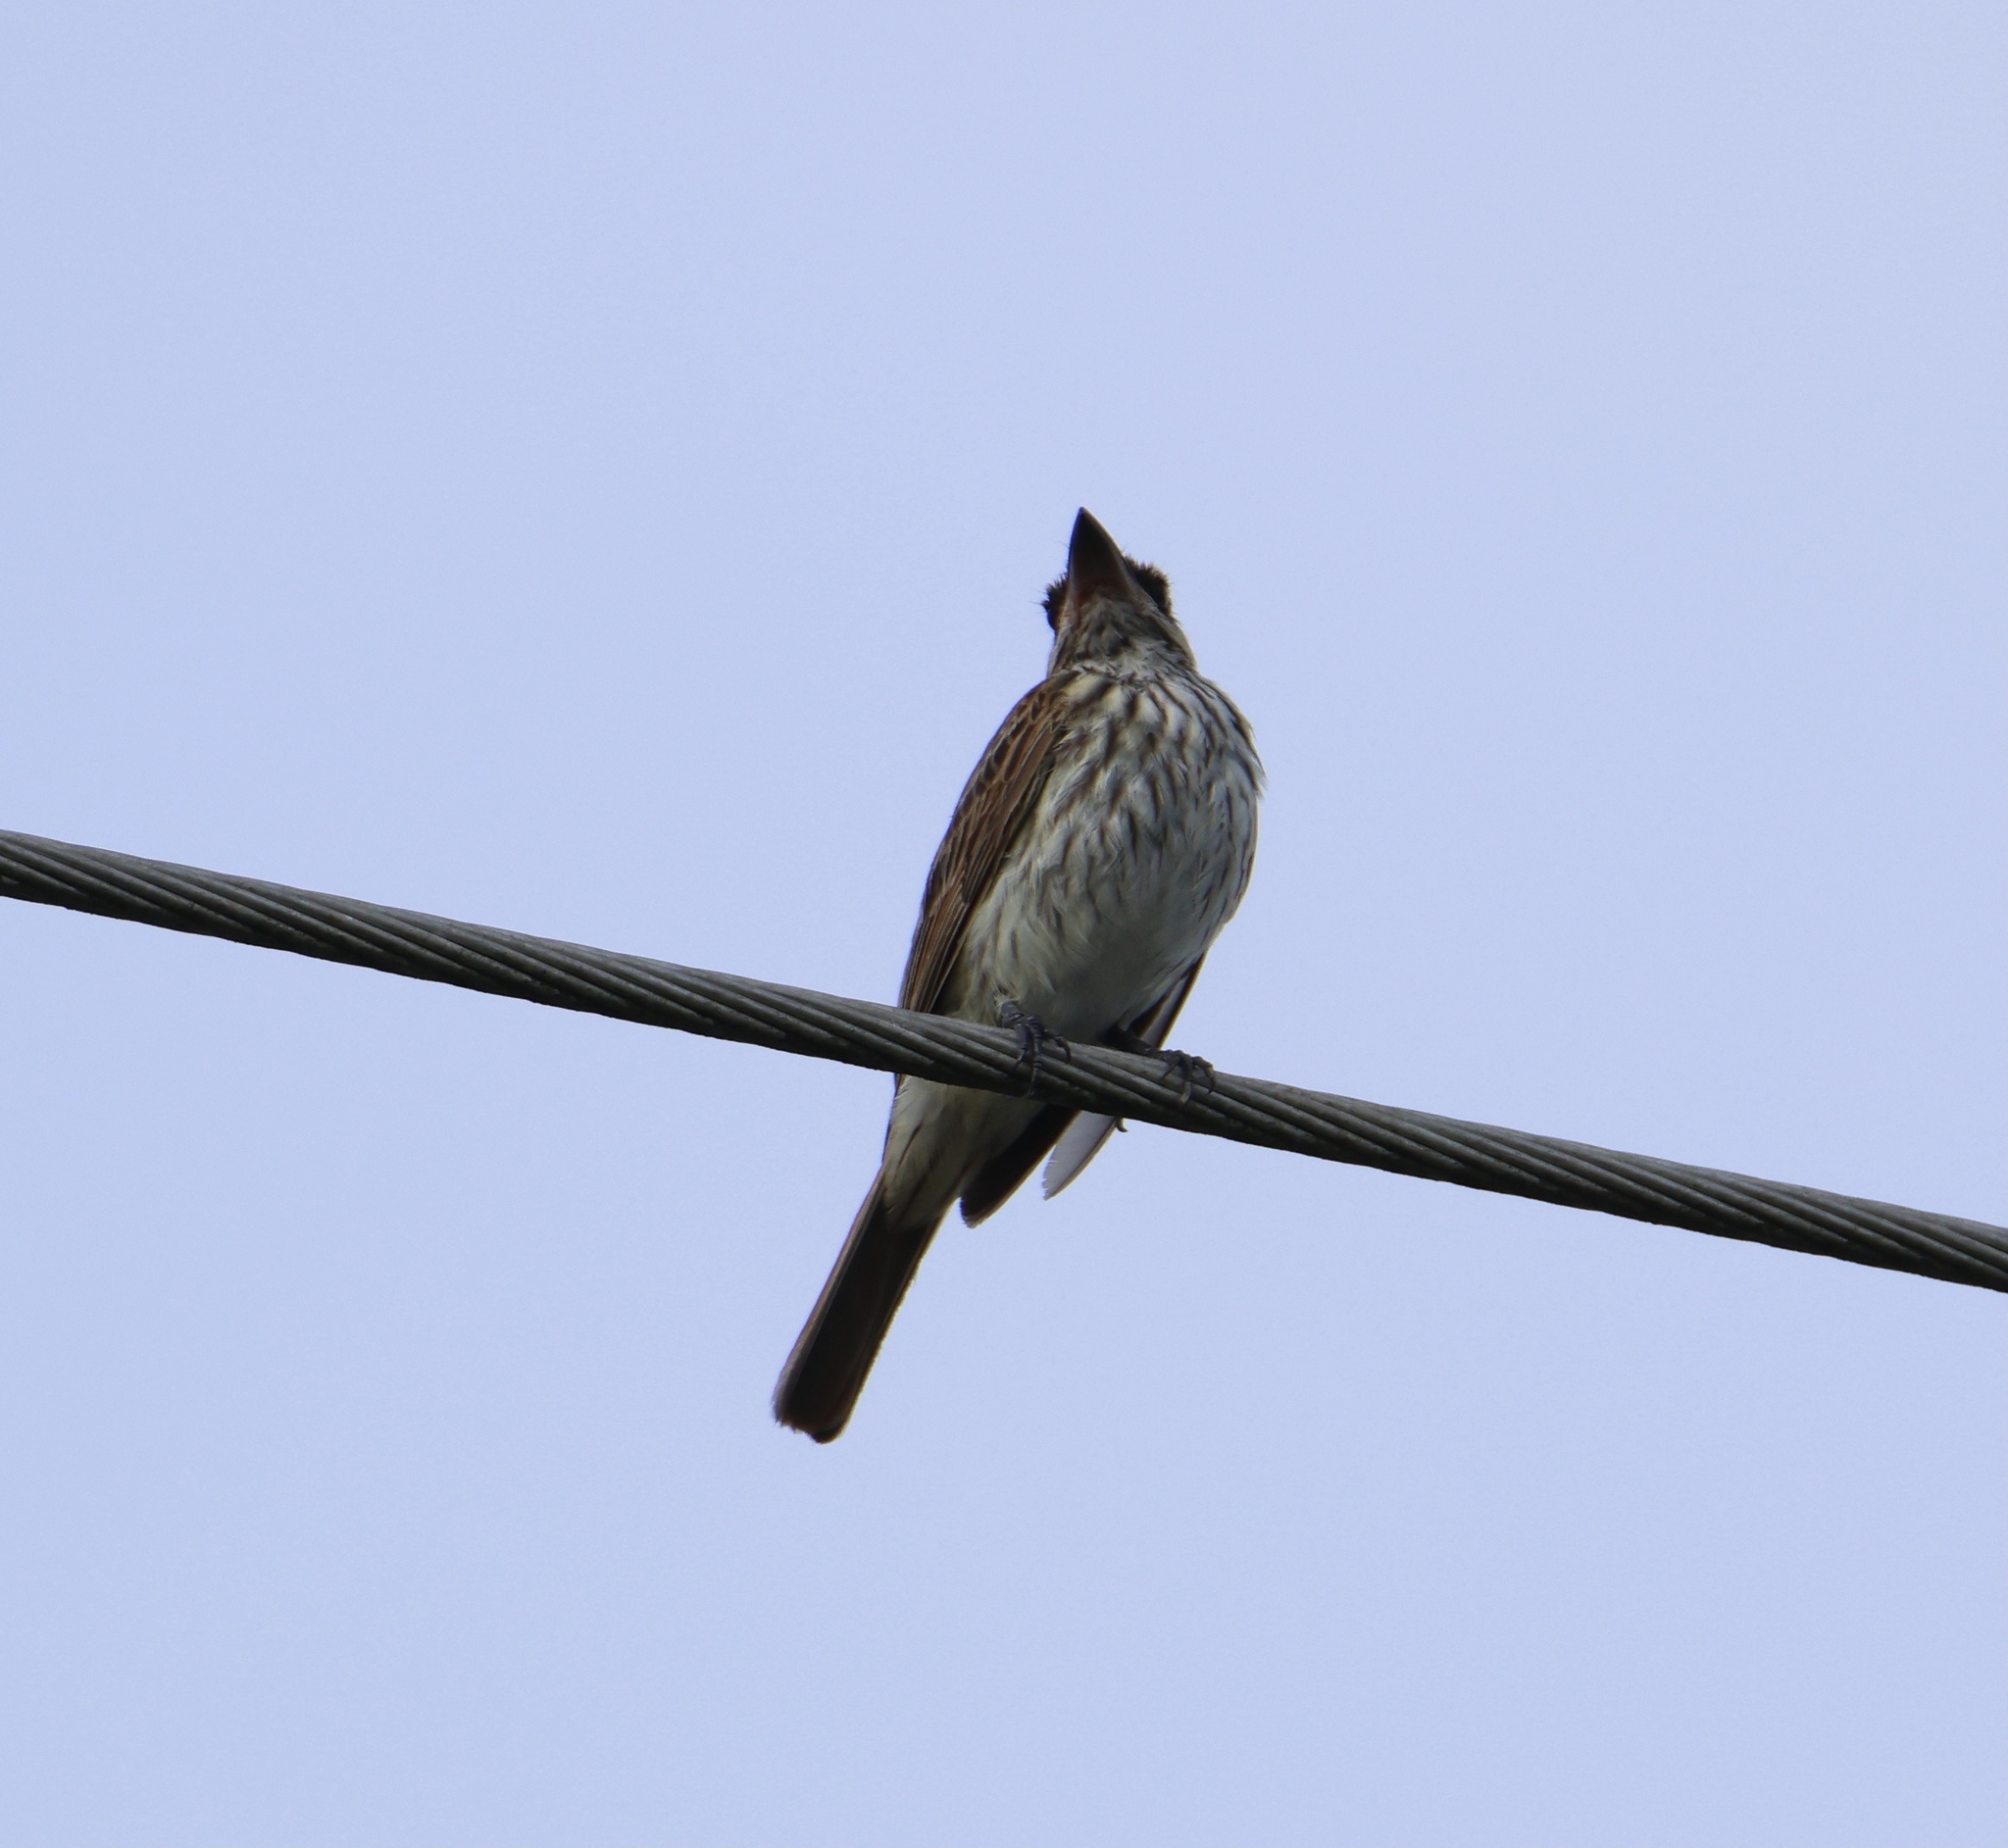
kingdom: Animalia
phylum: Chordata
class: Aves
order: Passeriformes
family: Tyrannidae
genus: Myiodynastes
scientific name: Myiodynastes maculatus
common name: Streaked flycatcher
